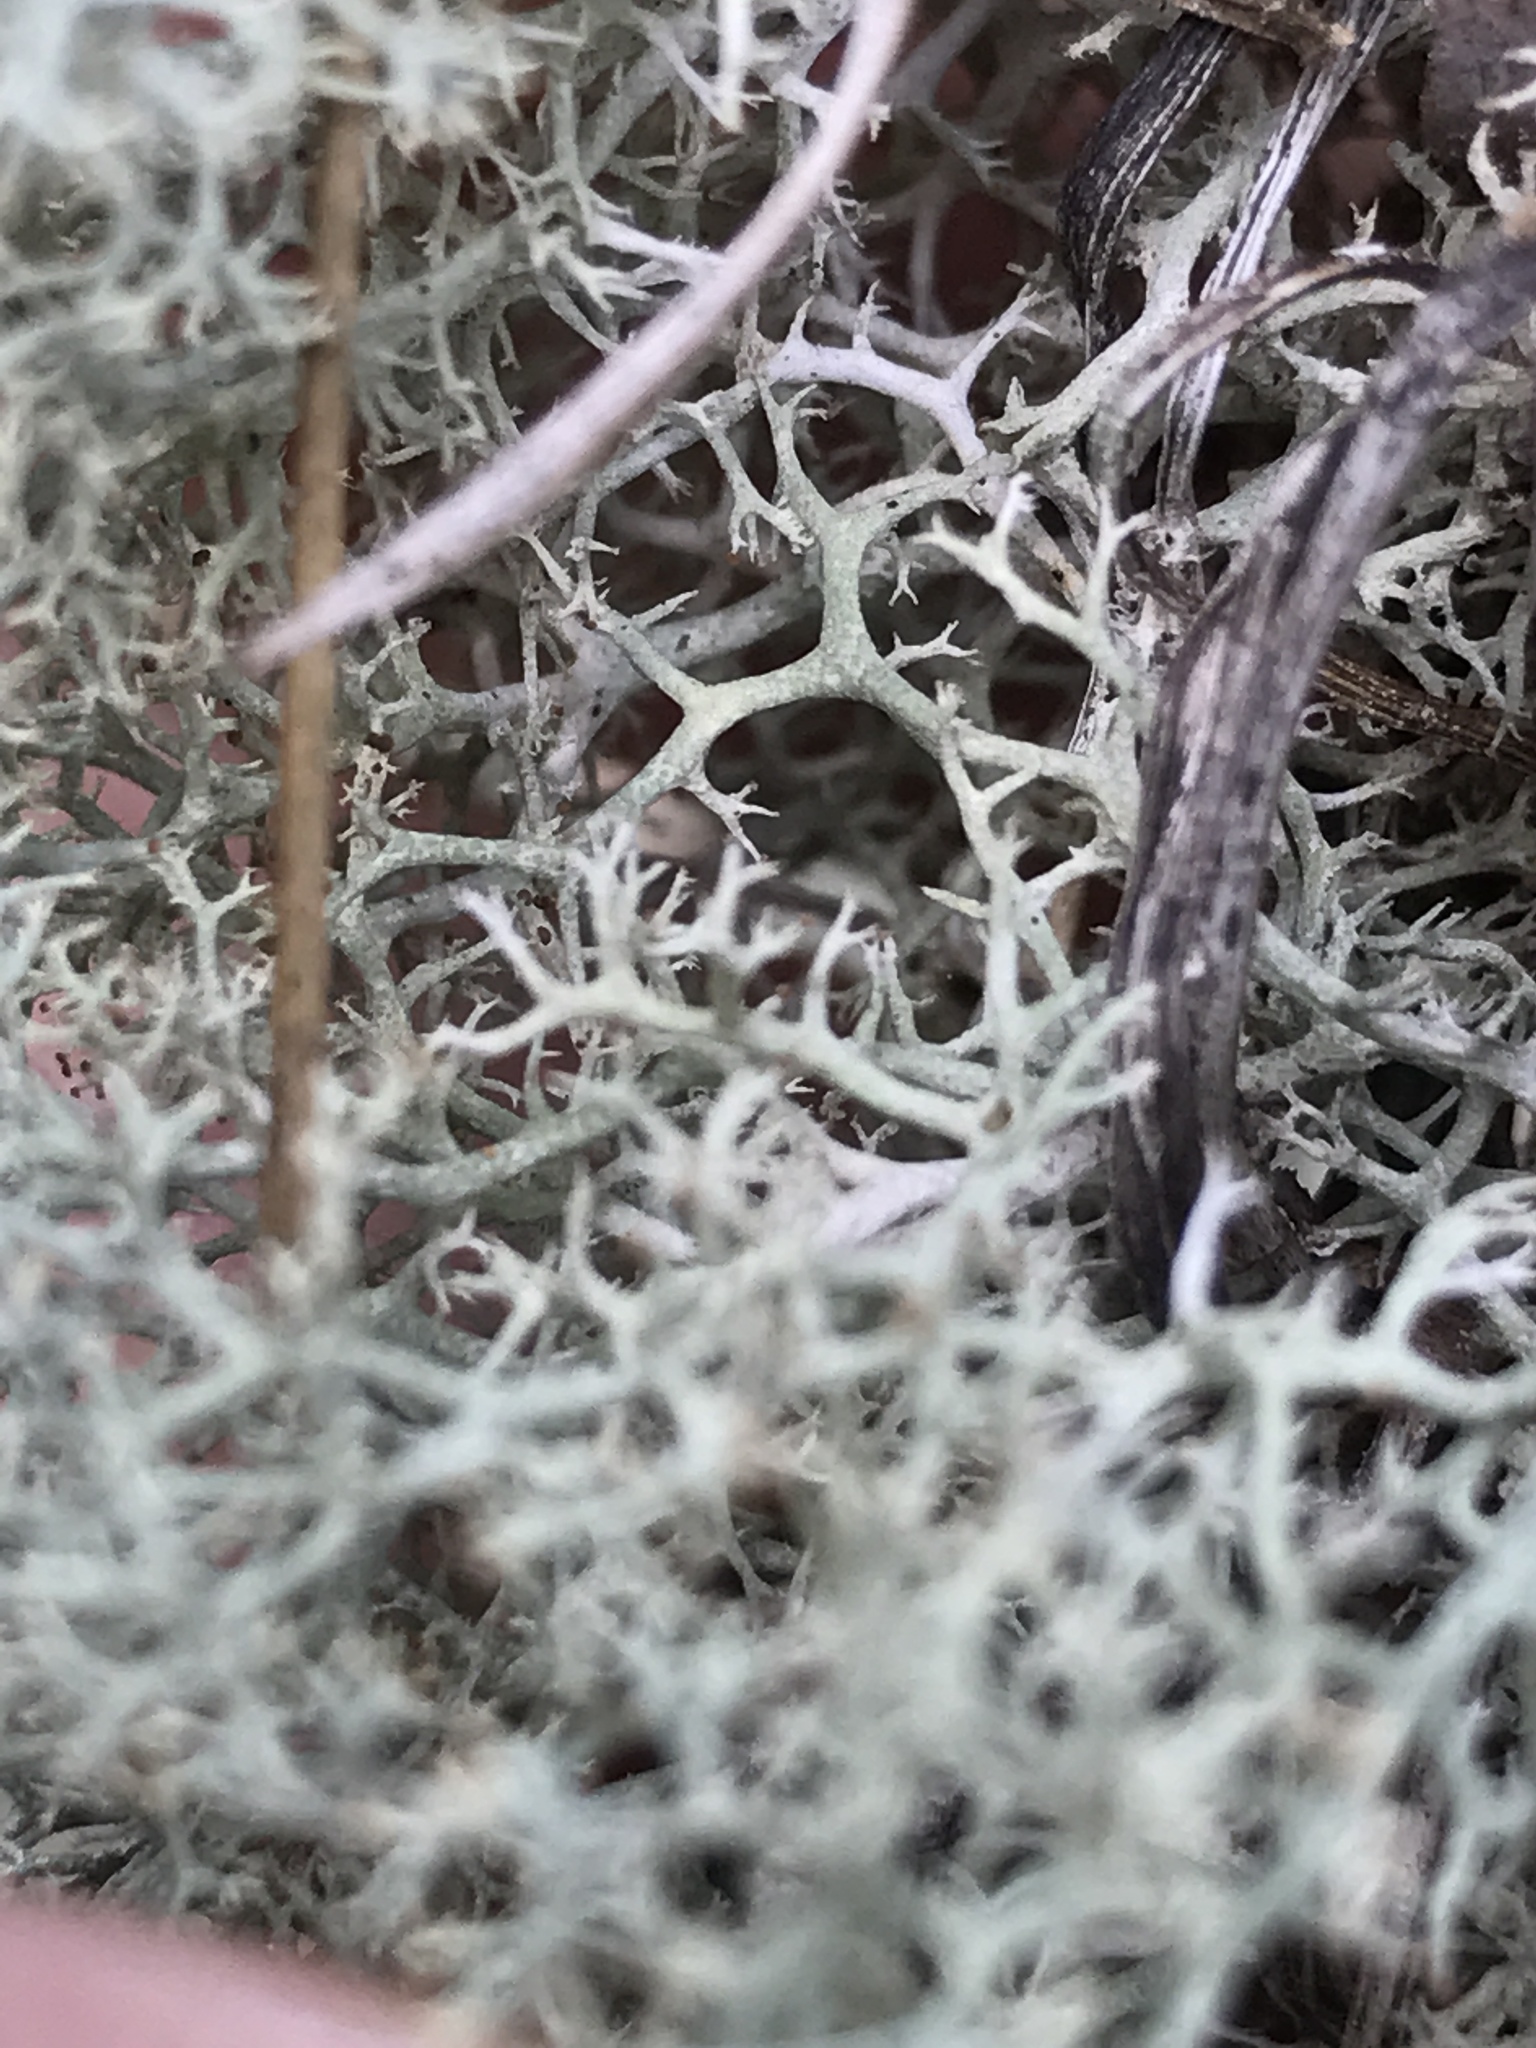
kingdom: Fungi
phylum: Ascomycota
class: Lecanoromycetes
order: Lecanorales
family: Cladoniaceae
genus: Cladonia
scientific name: Cladonia subtenuis
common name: Dixie reindeer lichen
